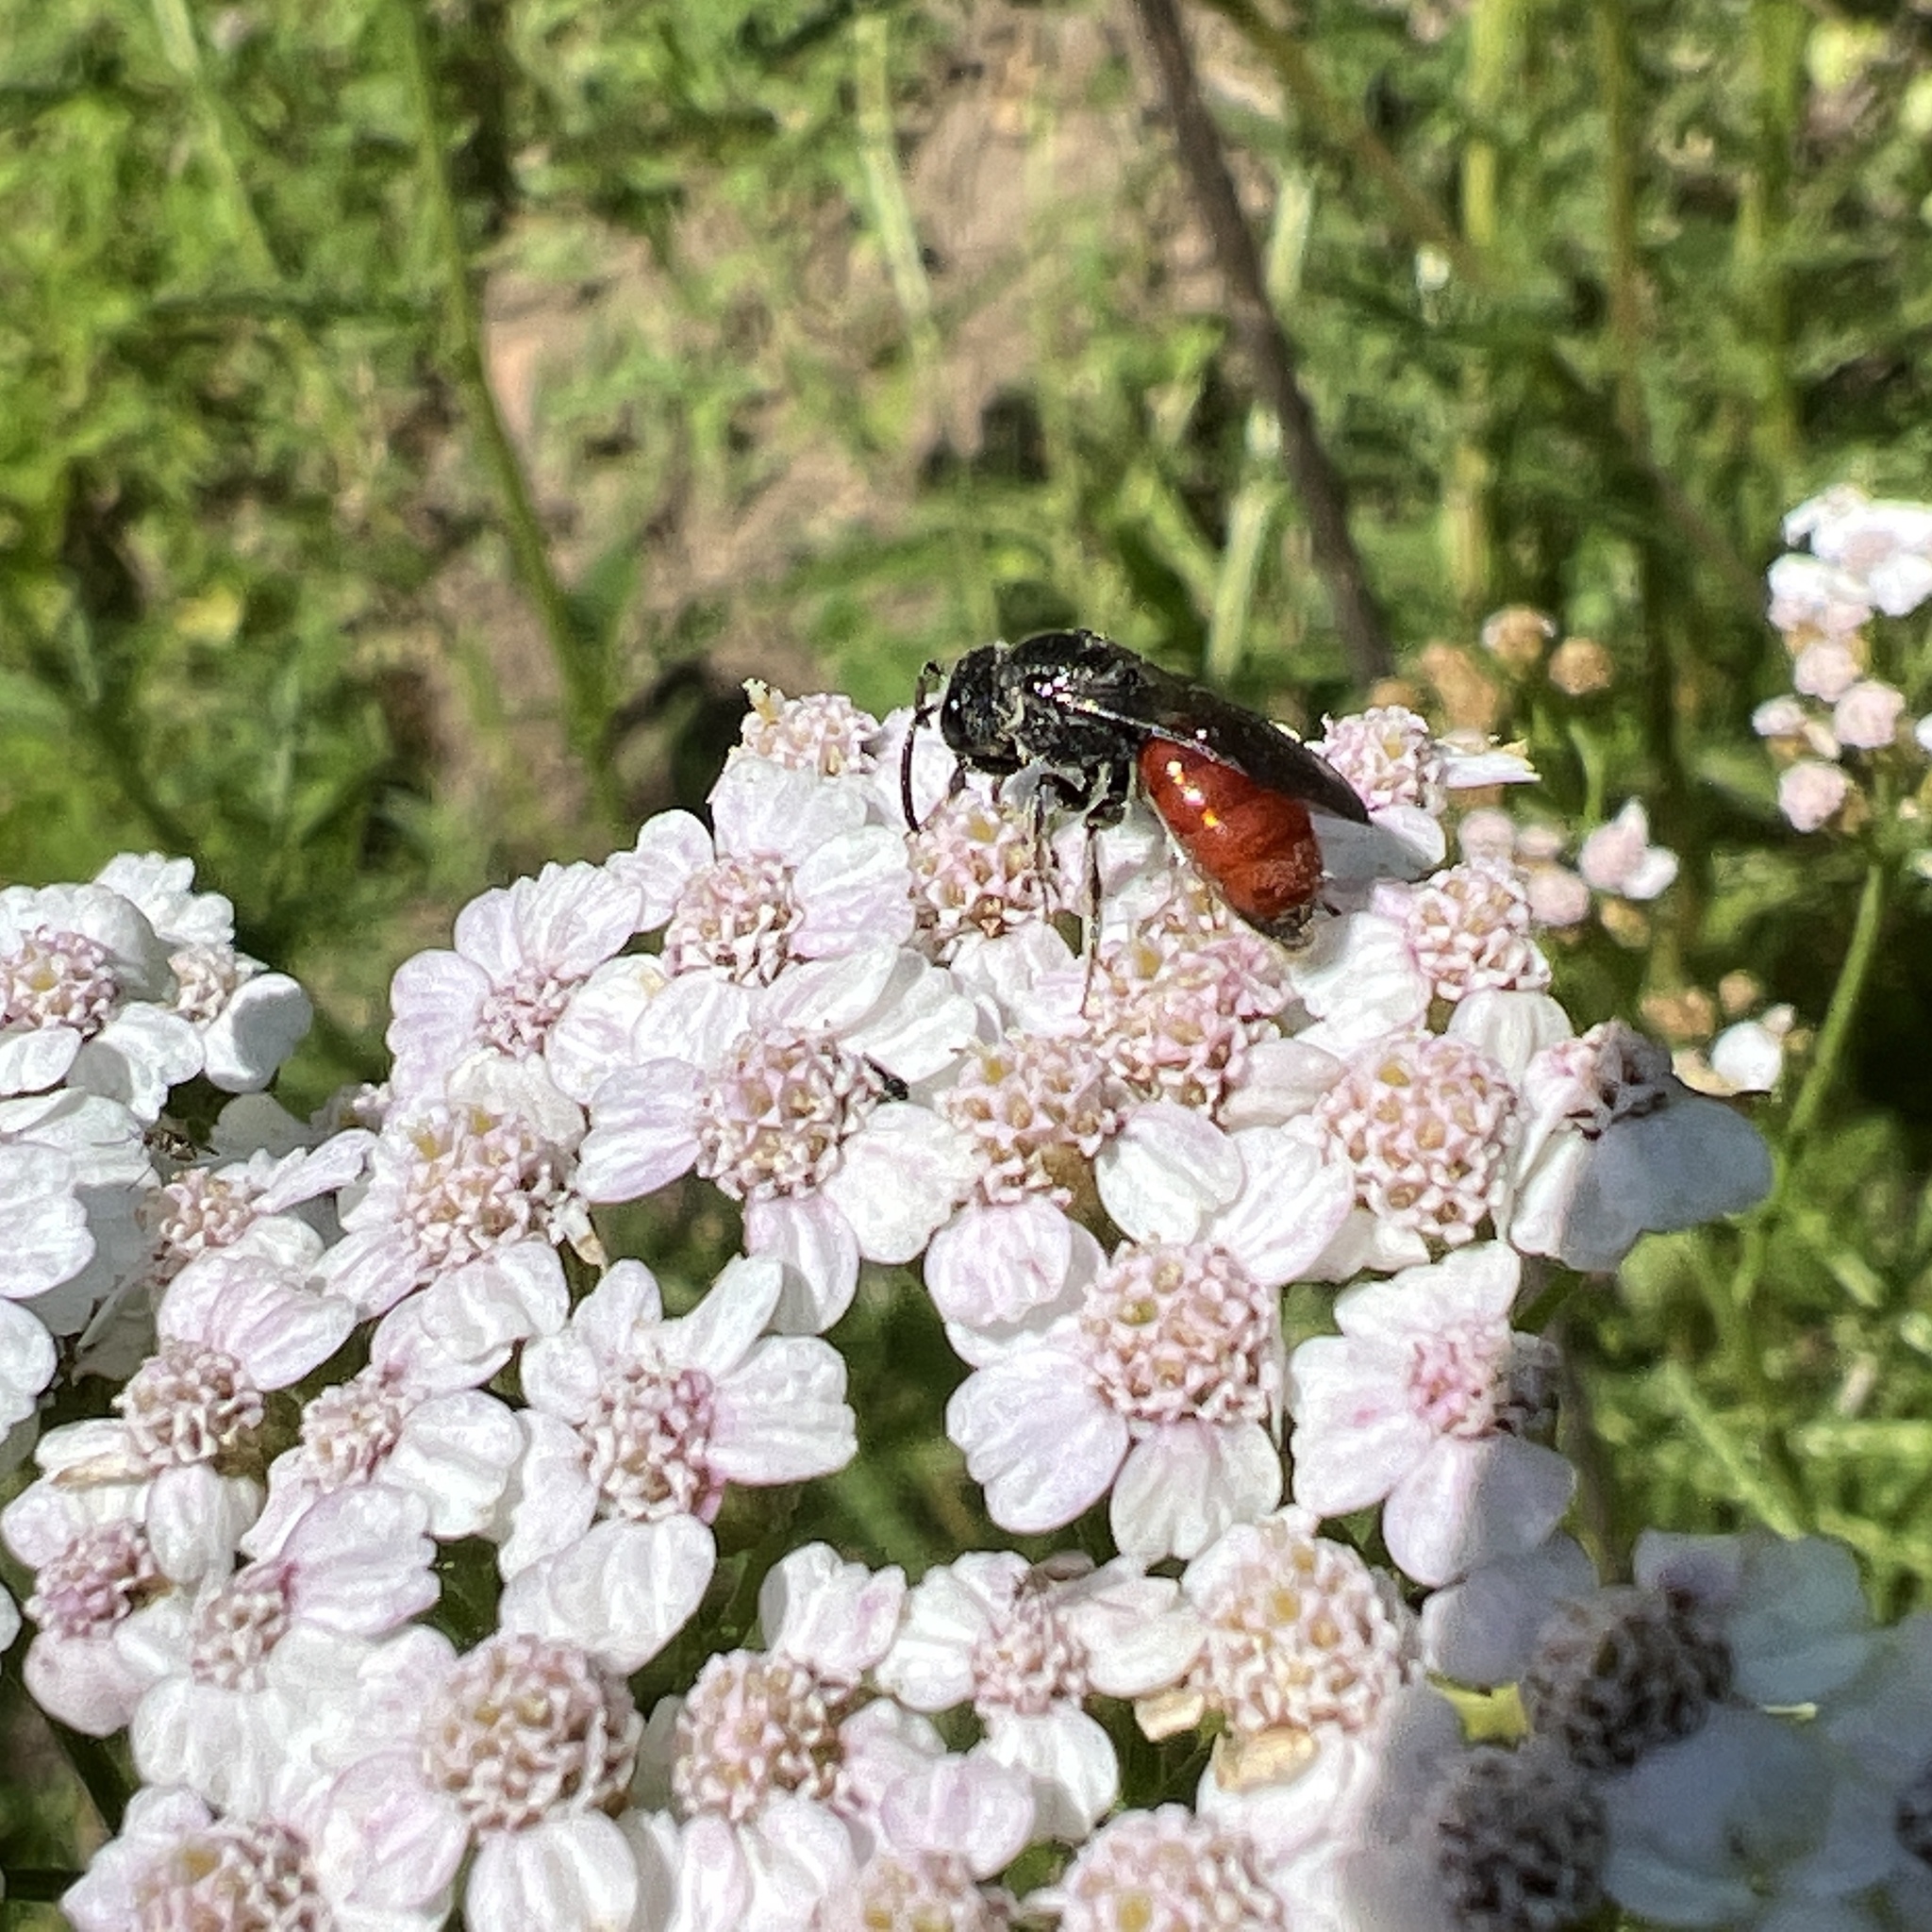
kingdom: Animalia
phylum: Arthropoda
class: Insecta
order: Hymenoptera
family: Halictidae
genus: Sphecodes
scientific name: Sphecodes
